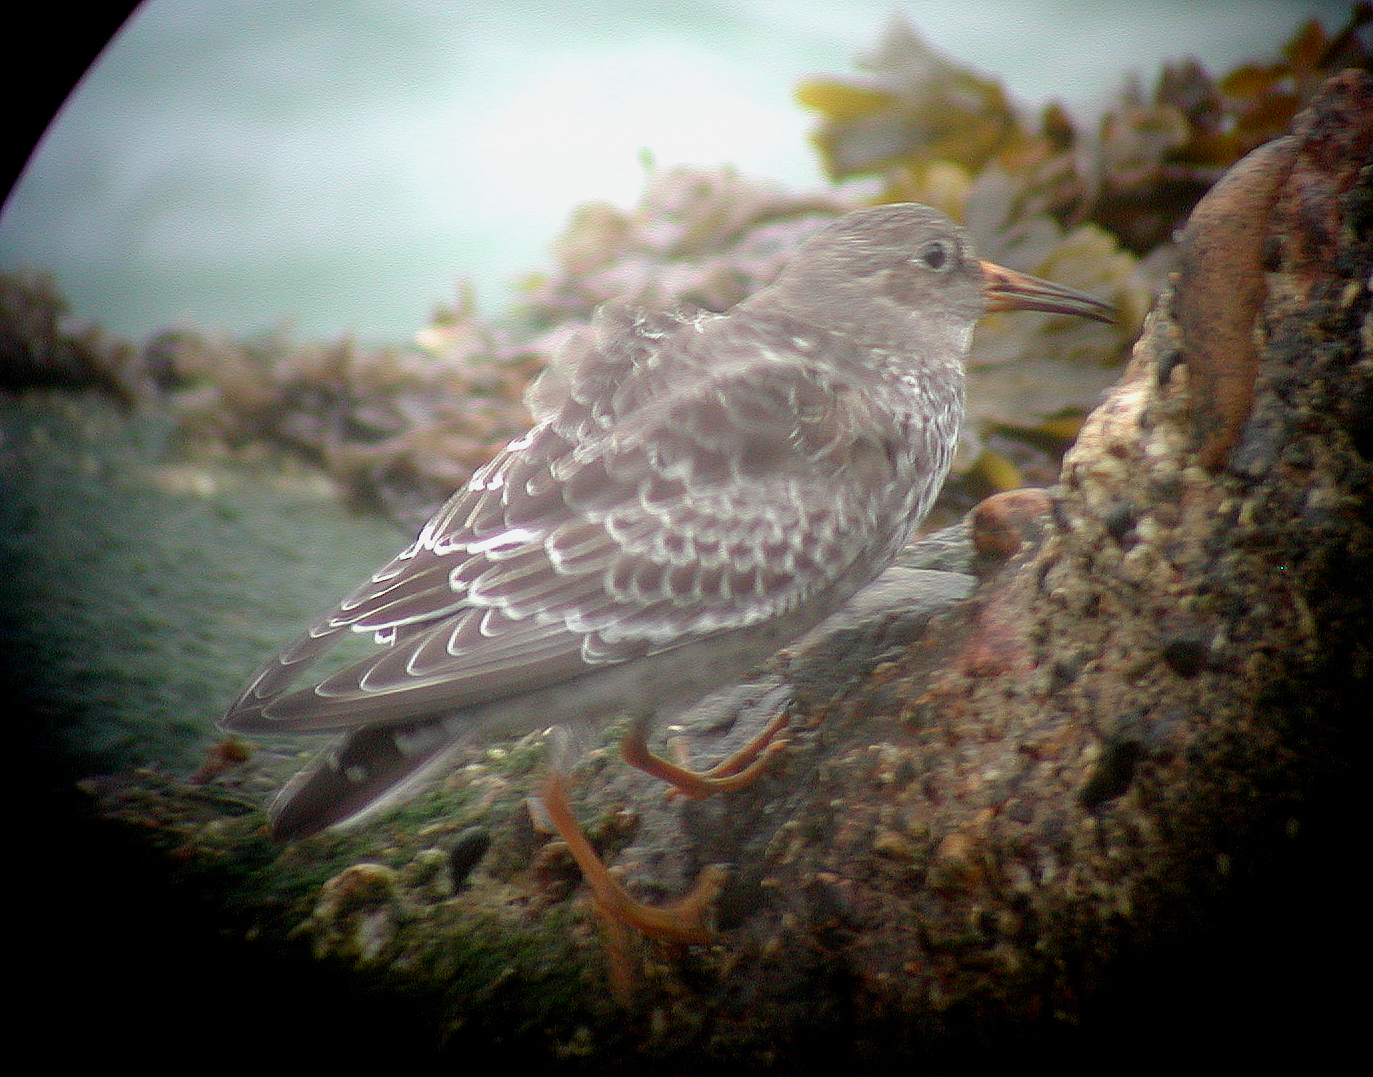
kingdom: Animalia
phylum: Chordata
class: Aves
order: Charadriiformes
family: Scolopacidae
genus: Calidris
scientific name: Calidris maritima
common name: Purple sandpiper
